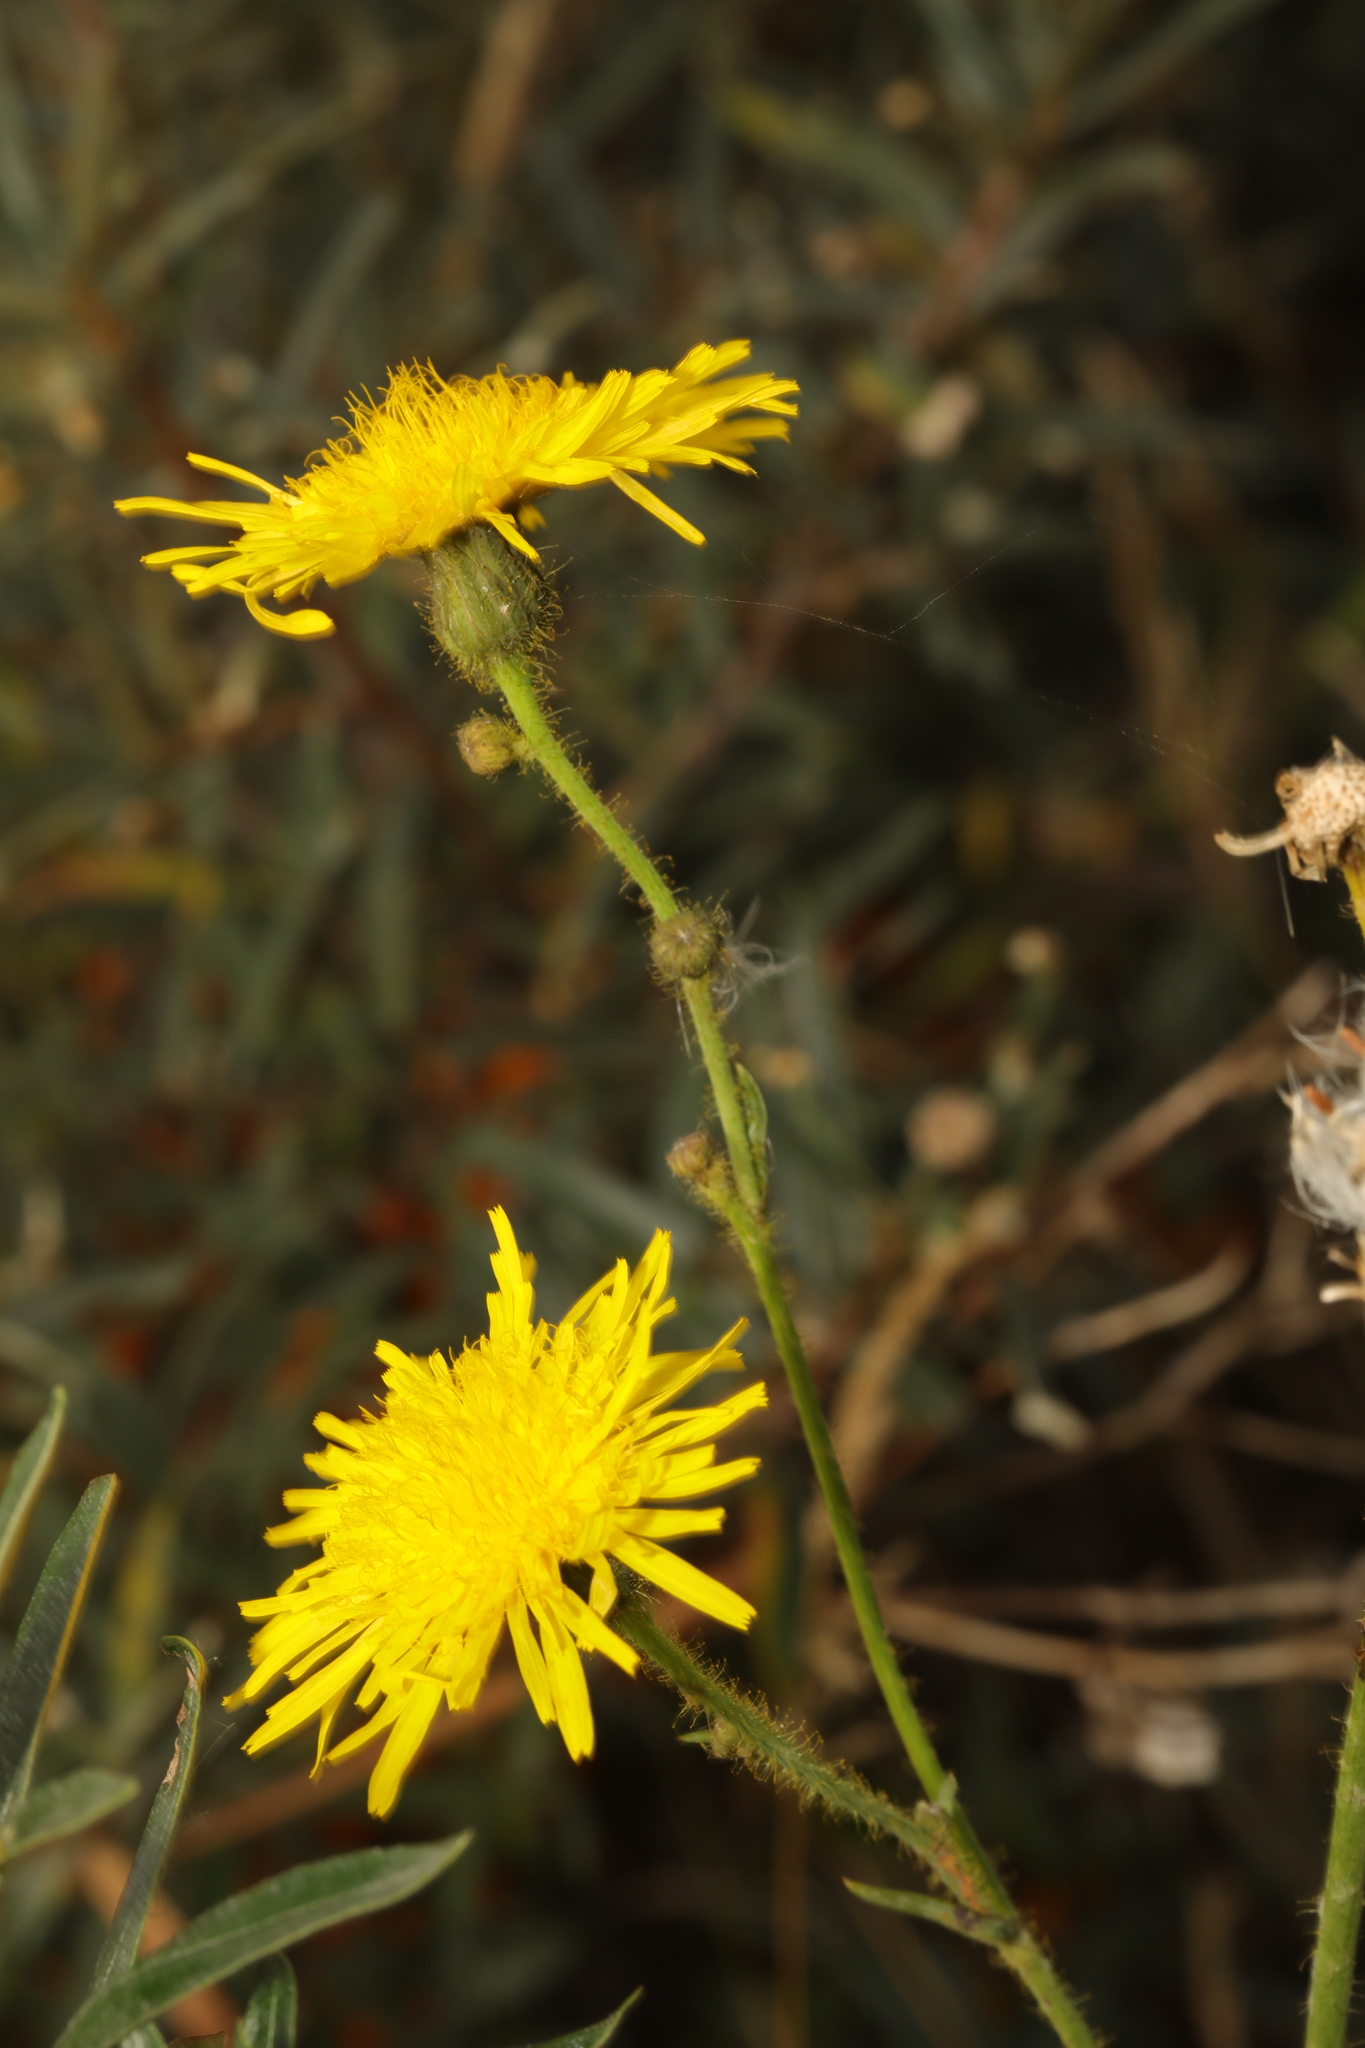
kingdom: Plantae
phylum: Tracheophyta
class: Magnoliopsida
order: Asterales
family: Asteraceae
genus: Sonchus
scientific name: Sonchus arvensis
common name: Perennial sow-thistle
